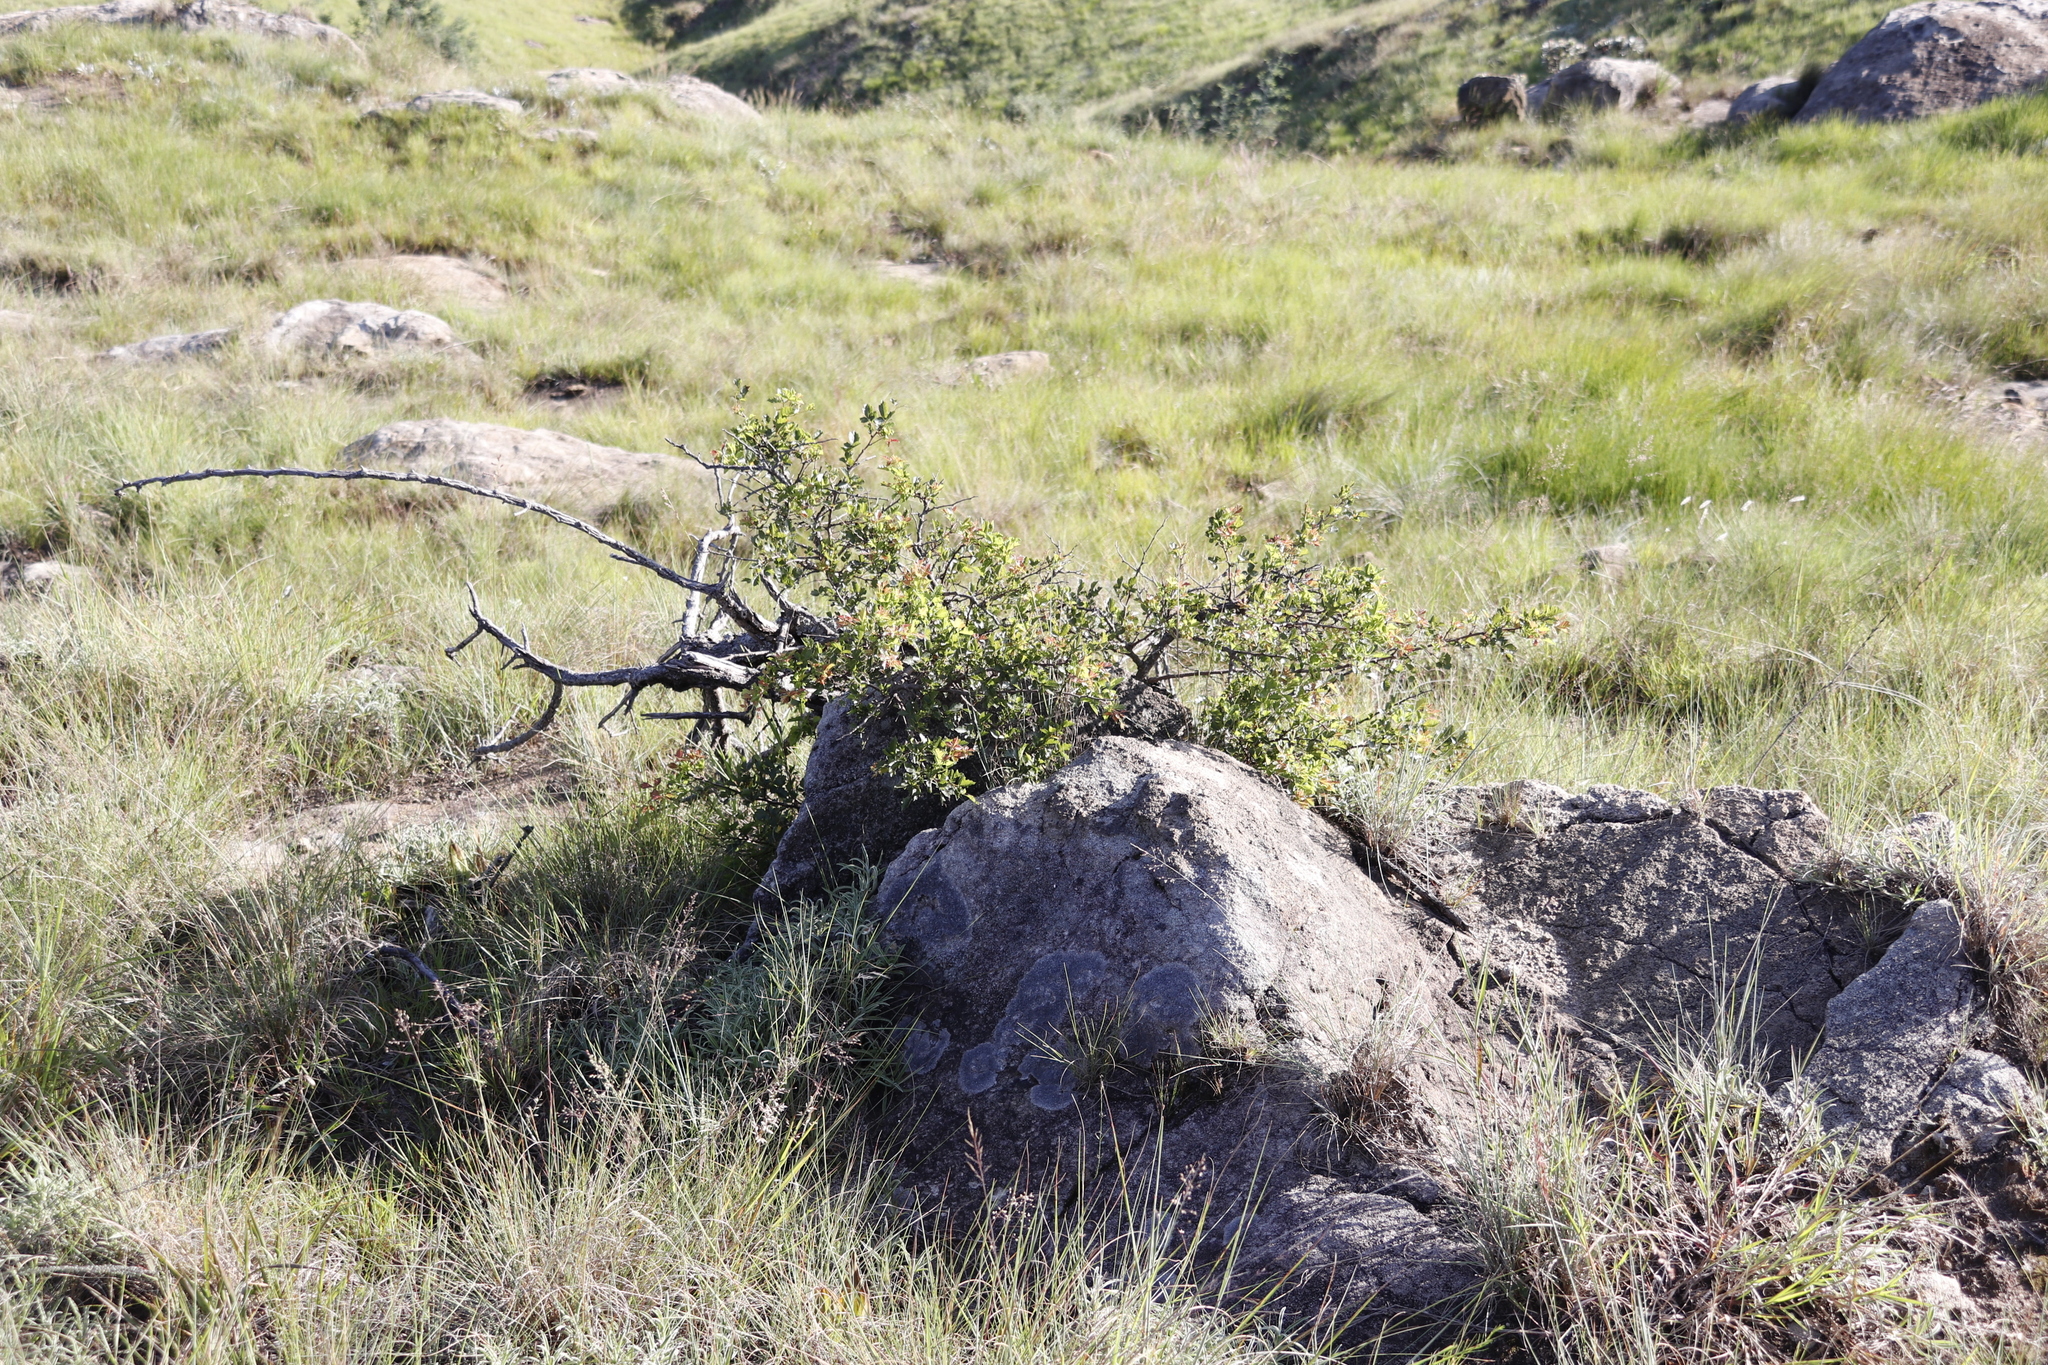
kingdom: Plantae
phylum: Tracheophyta
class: Magnoliopsida
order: Sapindales
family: Anacardiaceae
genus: Searsia
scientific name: Searsia dentata
